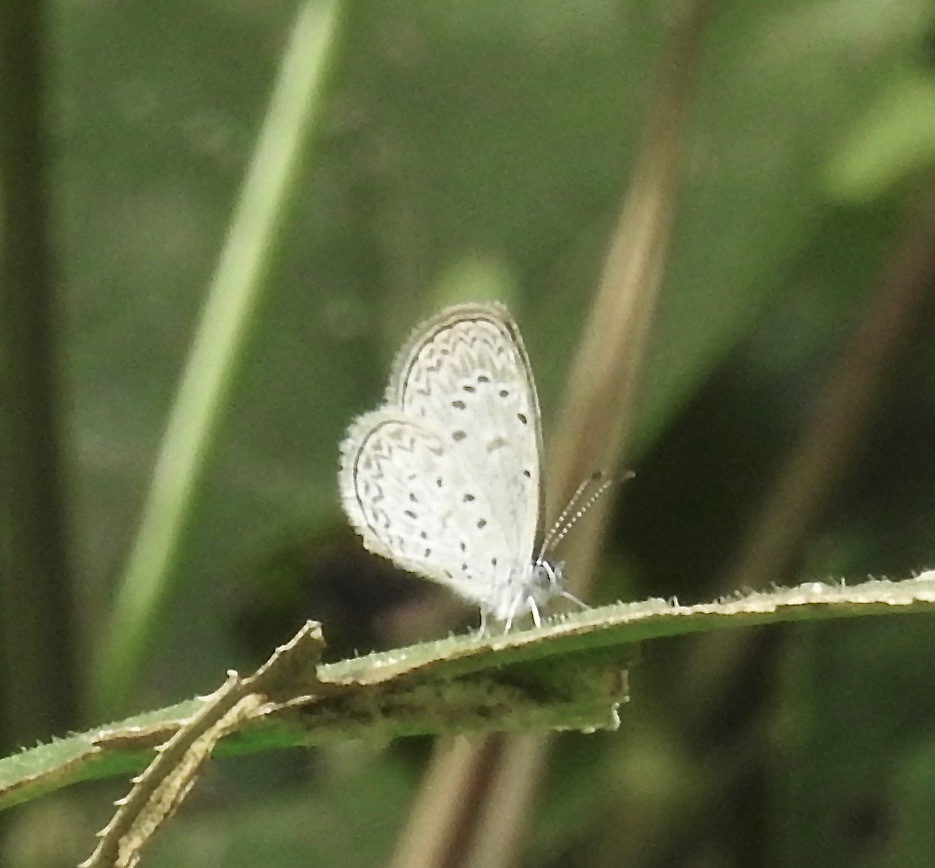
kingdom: Animalia
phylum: Arthropoda
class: Insecta
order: Lepidoptera
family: Lycaenidae
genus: Lycaena
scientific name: Lycaena cyna
